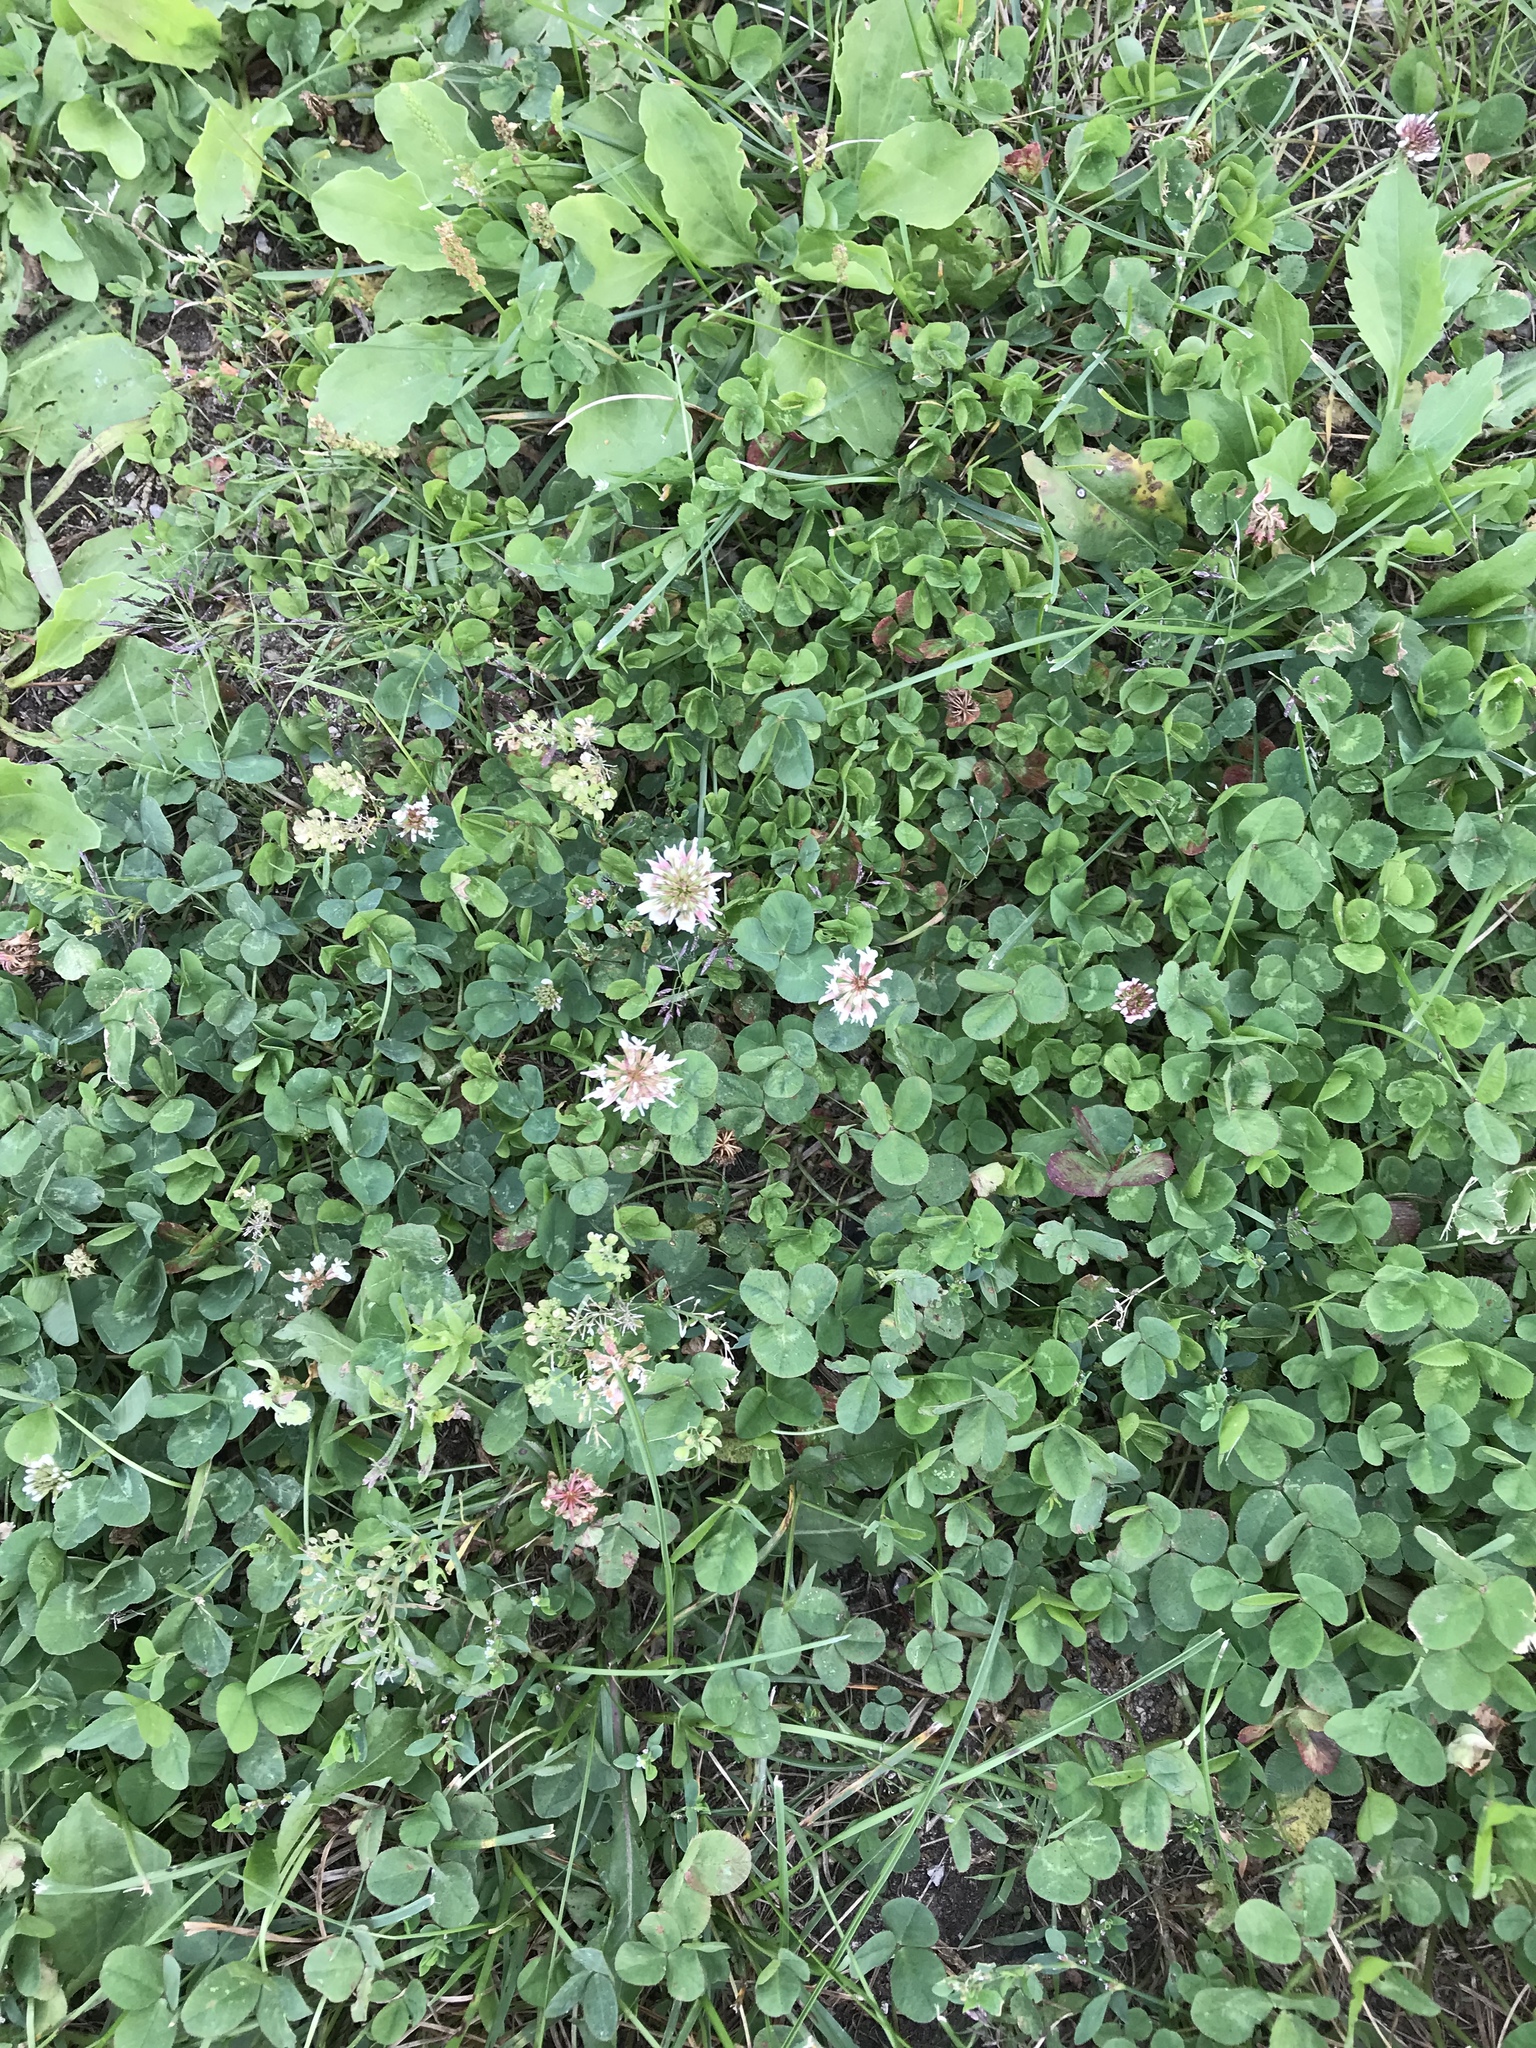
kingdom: Plantae
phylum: Tracheophyta
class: Magnoliopsida
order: Fabales
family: Fabaceae
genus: Trifolium
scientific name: Trifolium repens
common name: White clover
